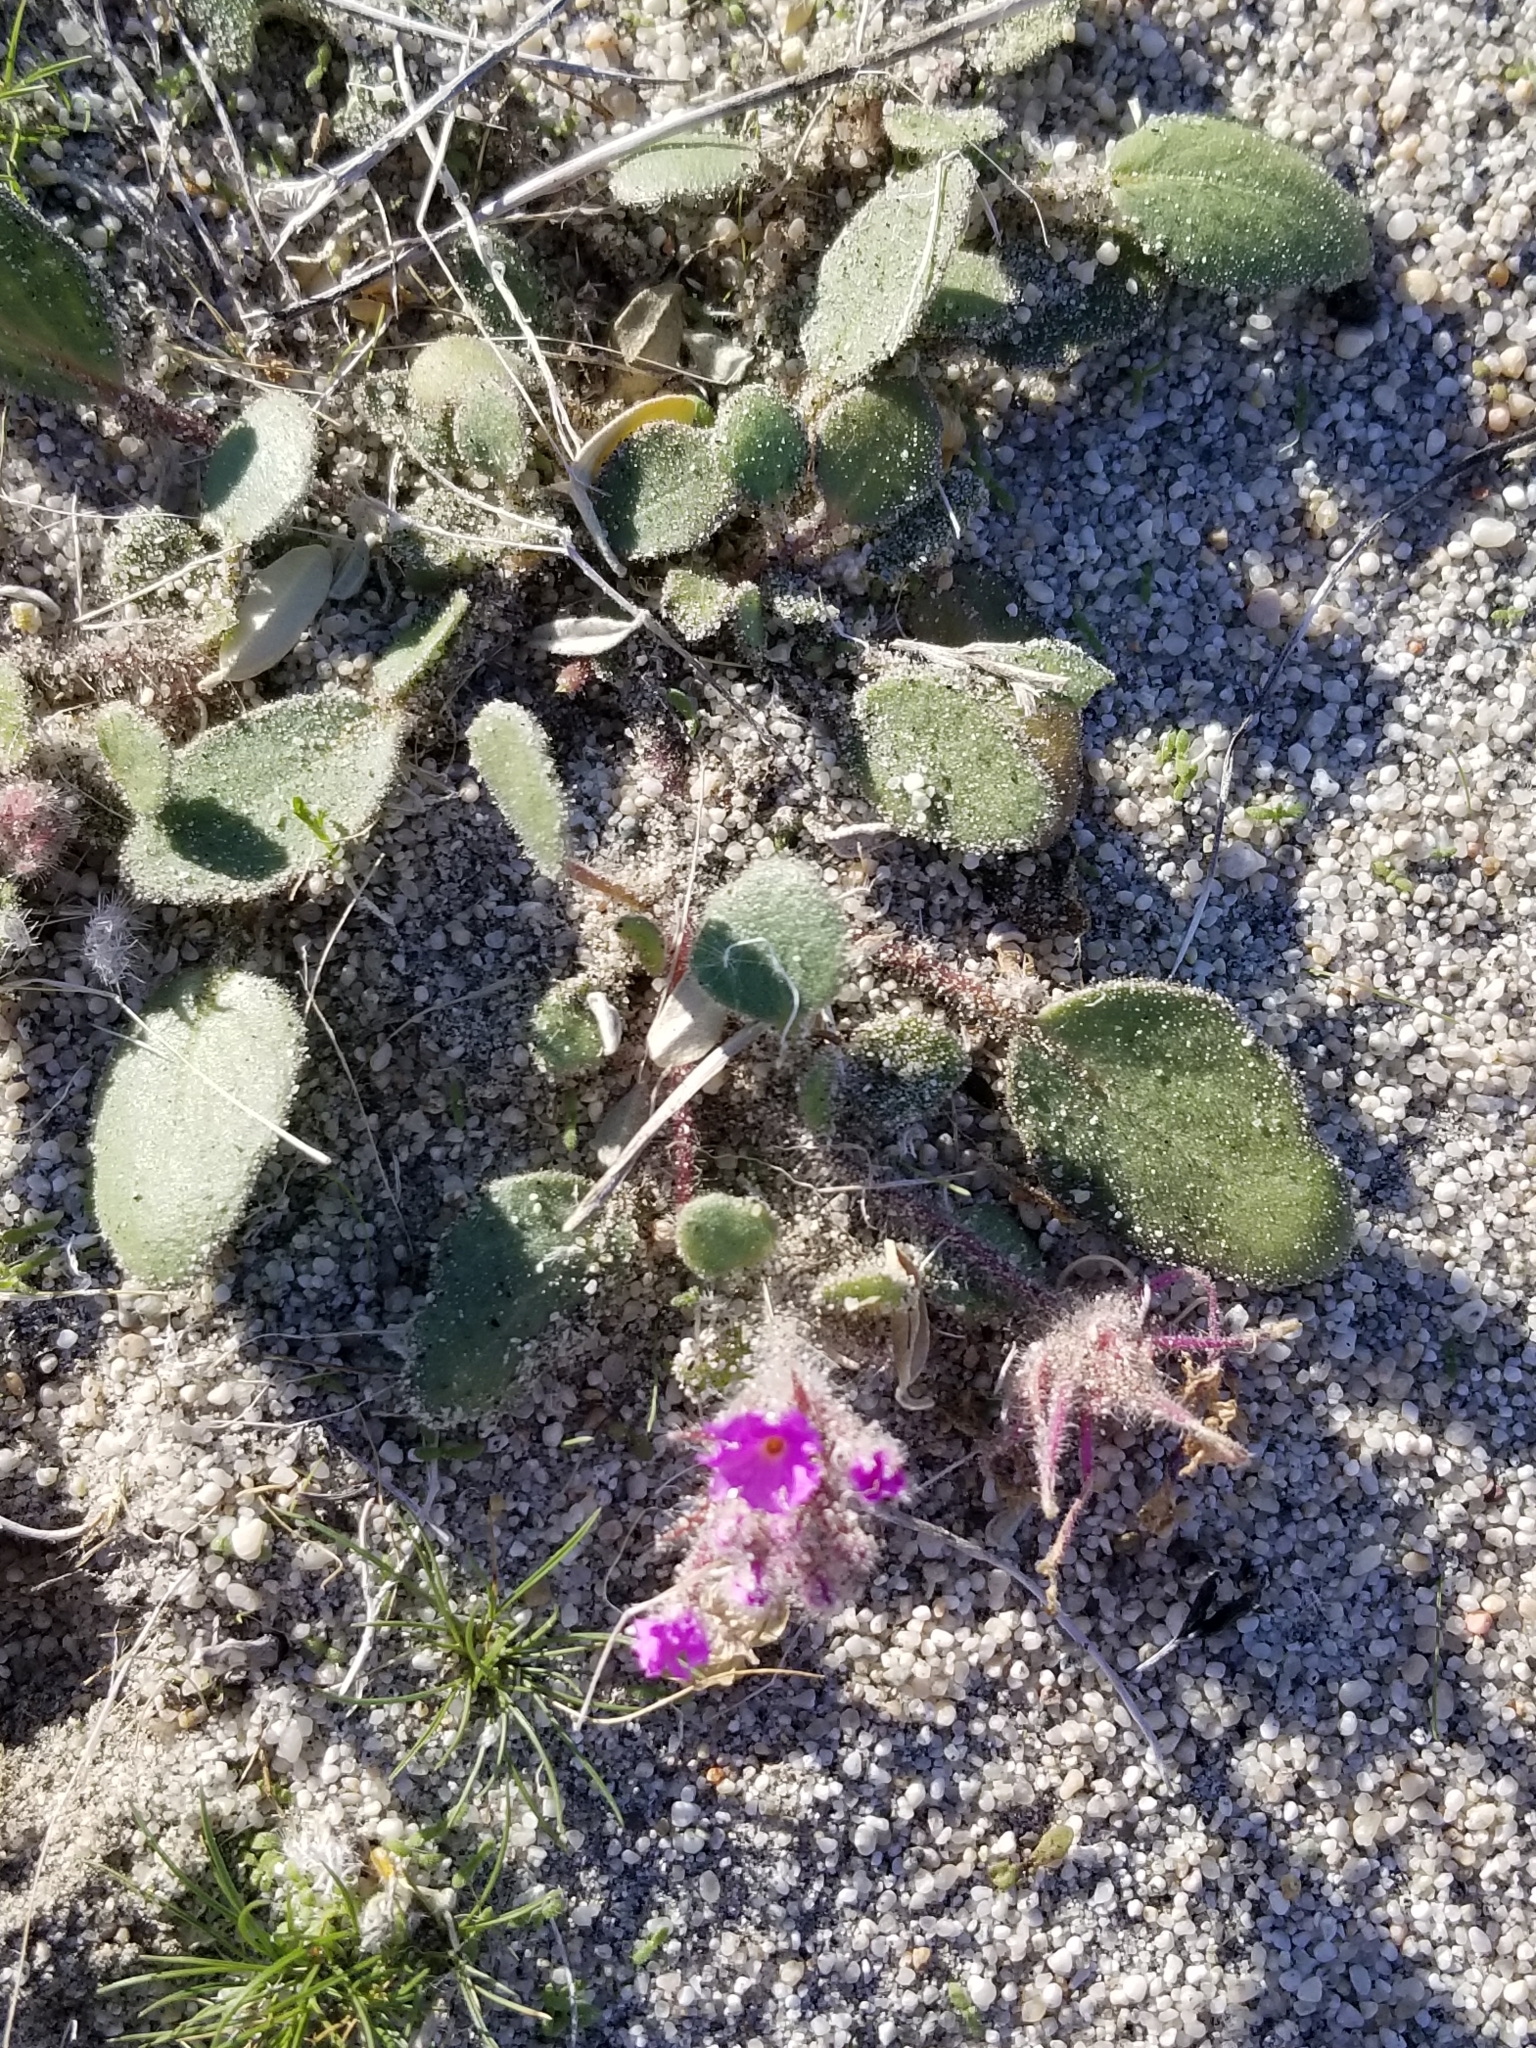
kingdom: Plantae
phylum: Tracheophyta
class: Magnoliopsida
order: Caryophyllales
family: Nyctaginaceae
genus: Abronia
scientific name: Abronia villosa
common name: Desert sand-verbena
